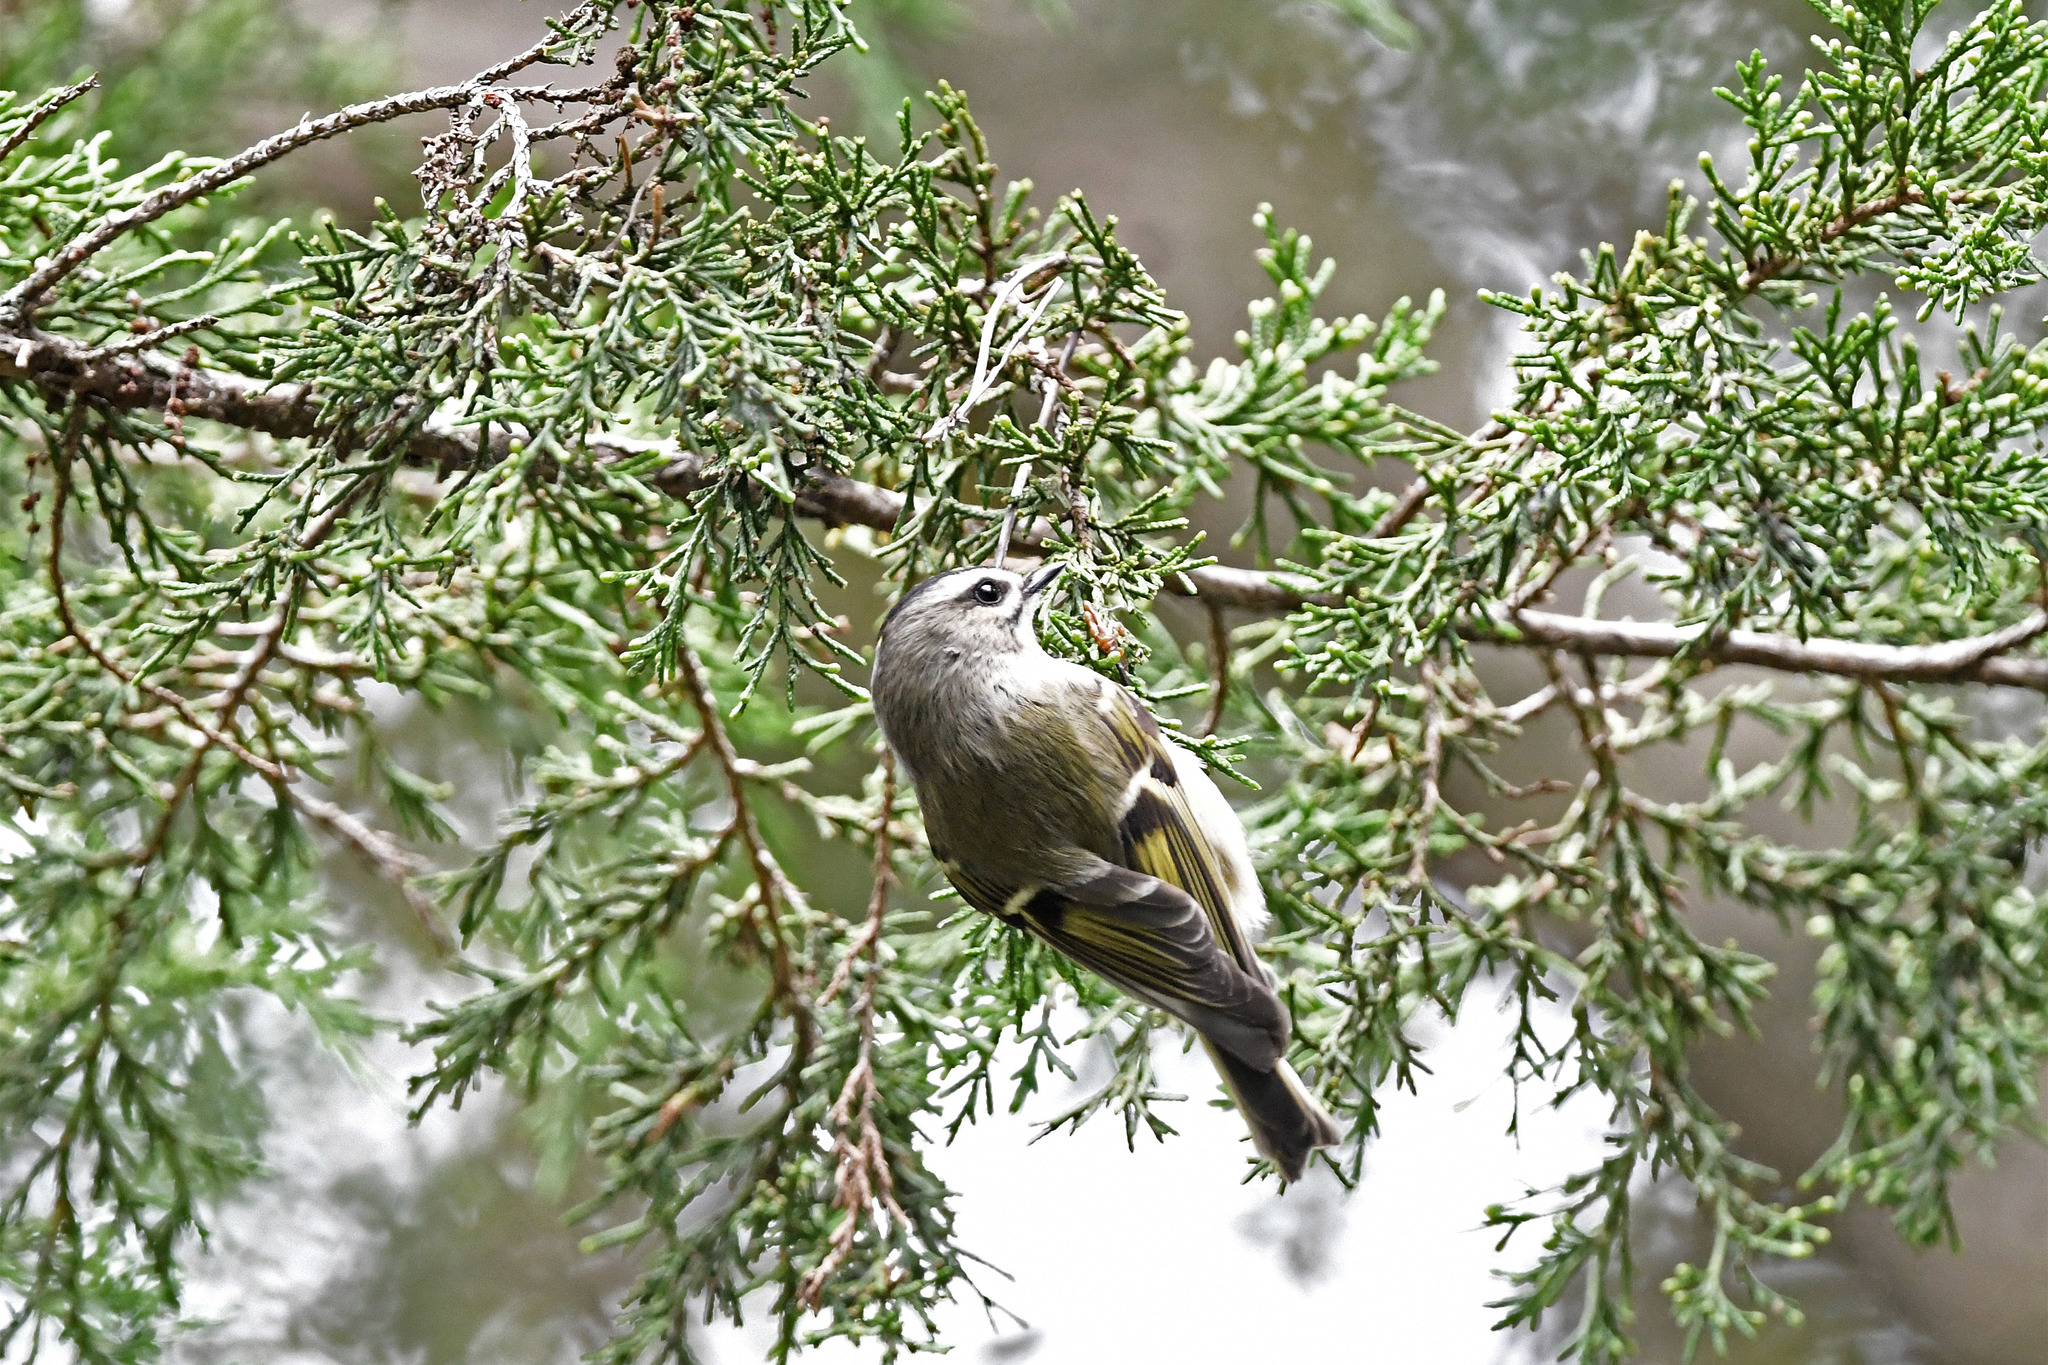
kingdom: Animalia
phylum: Chordata
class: Aves
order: Passeriformes
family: Regulidae
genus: Regulus
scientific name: Regulus satrapa
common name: Golden-crowned kinglet
